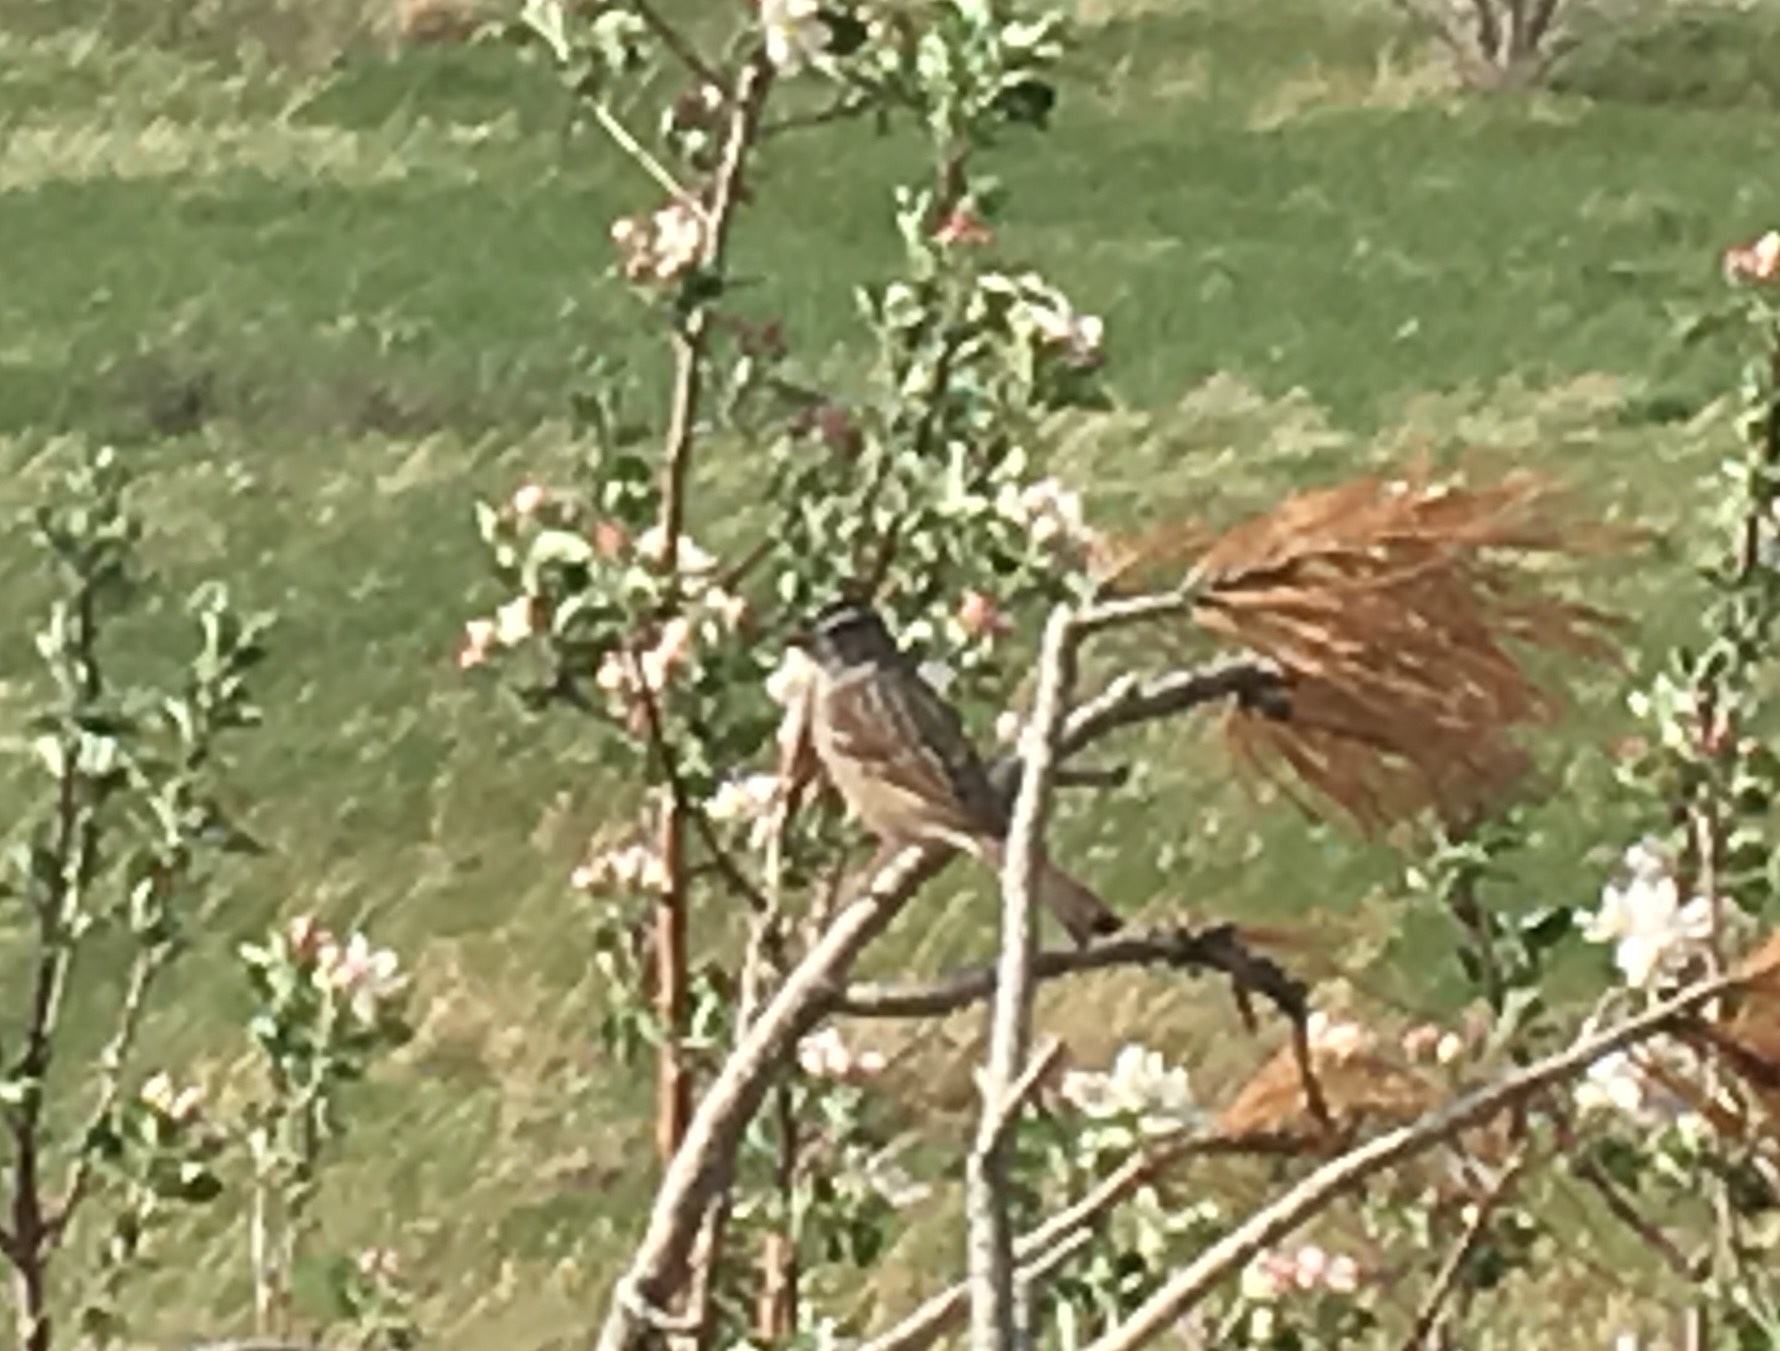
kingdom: Animalia
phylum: Chordata
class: Aves
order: Passeriformes
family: Passerellidae
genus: Zonotrichia
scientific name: Zonotrichia leucophrys
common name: White-crowned sparrow
